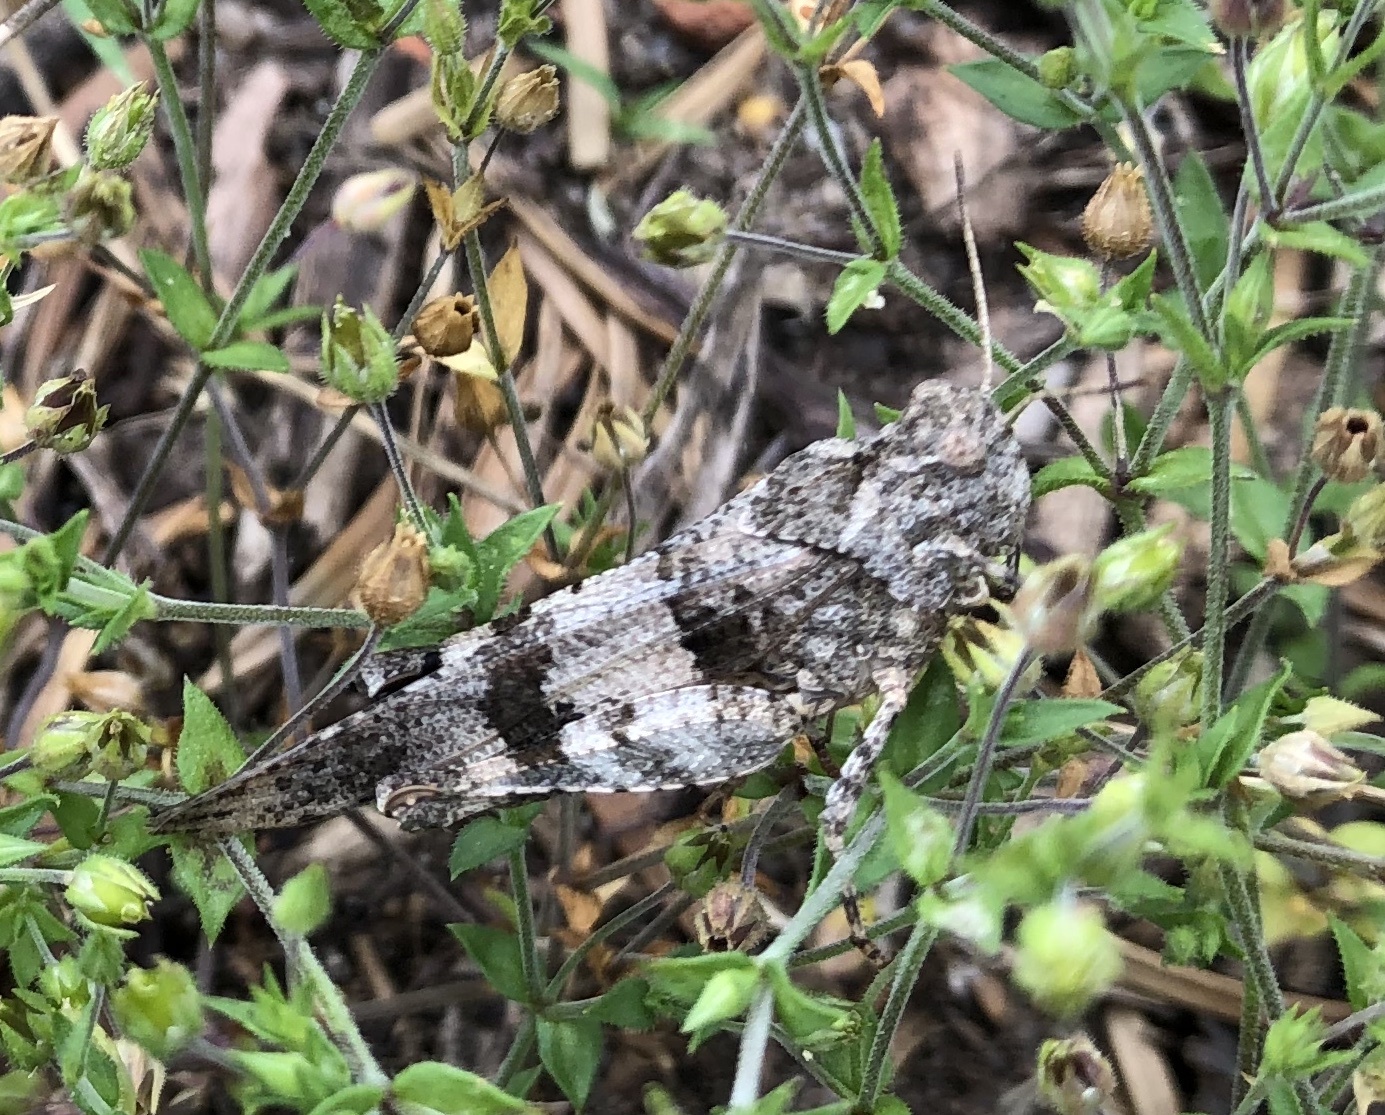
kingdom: Animalia
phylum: Arthropoda
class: Insecta
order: Orthoptera
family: Acrididae
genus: Oedipoda
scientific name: Oedipoda caerulescens
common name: Blue-winged grasshopper
